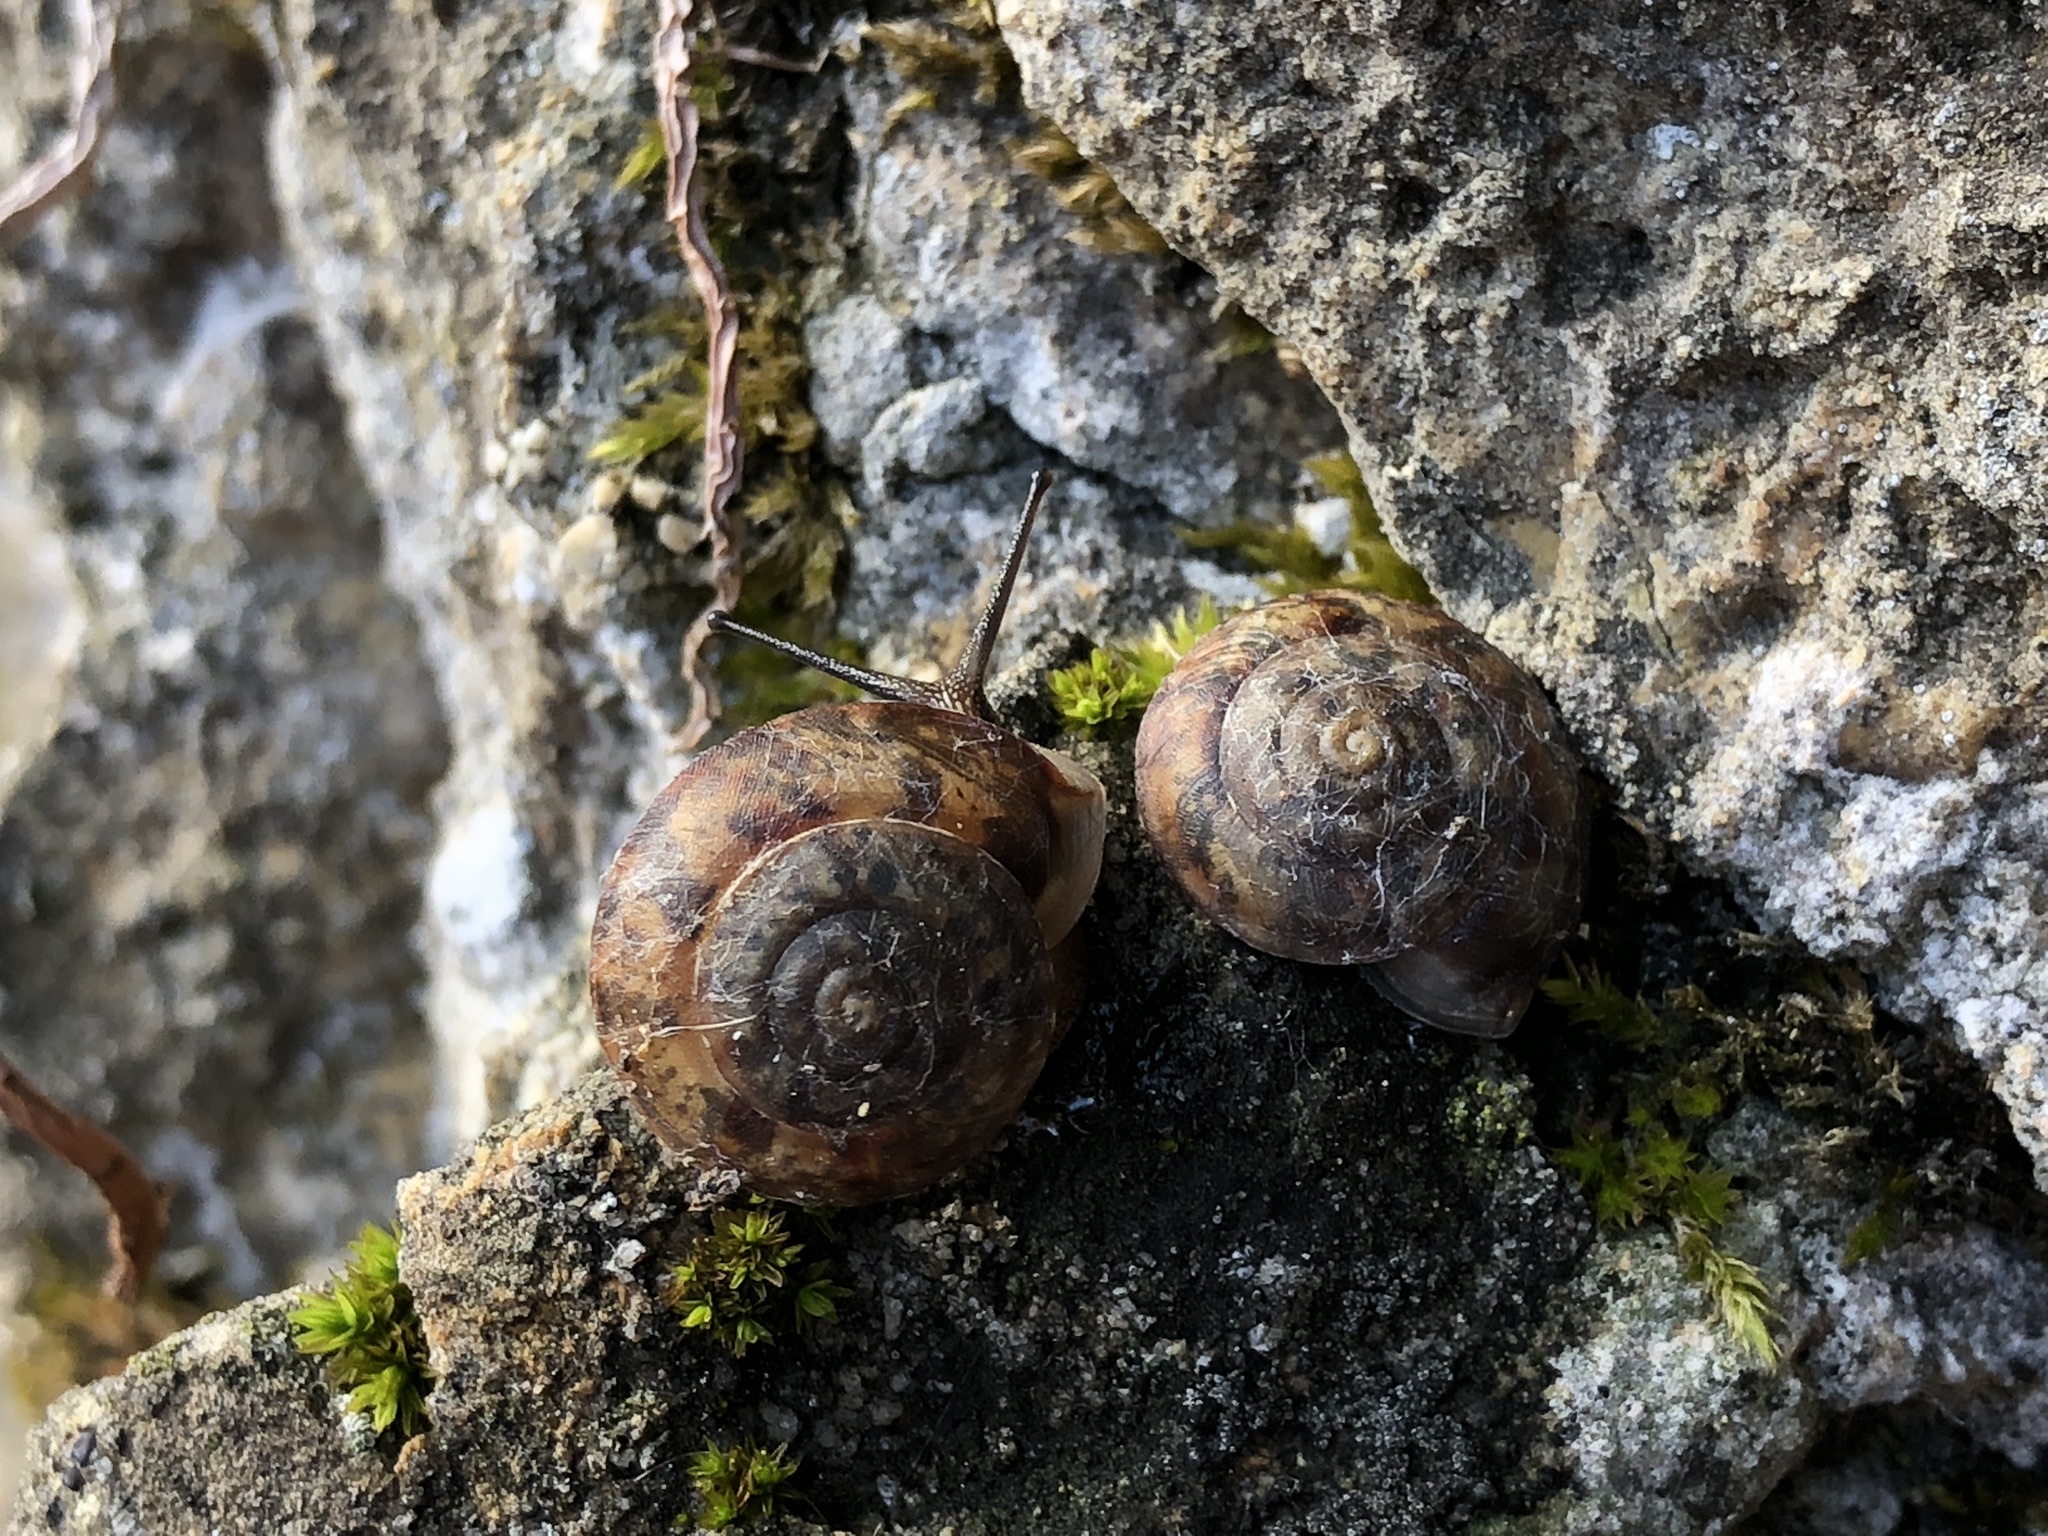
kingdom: Animalia
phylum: Mollusca
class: Gastropoda
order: Stylommatophora
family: Helicidae
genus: Helicigona
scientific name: Helicigona lapicida
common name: Lapidary snail
